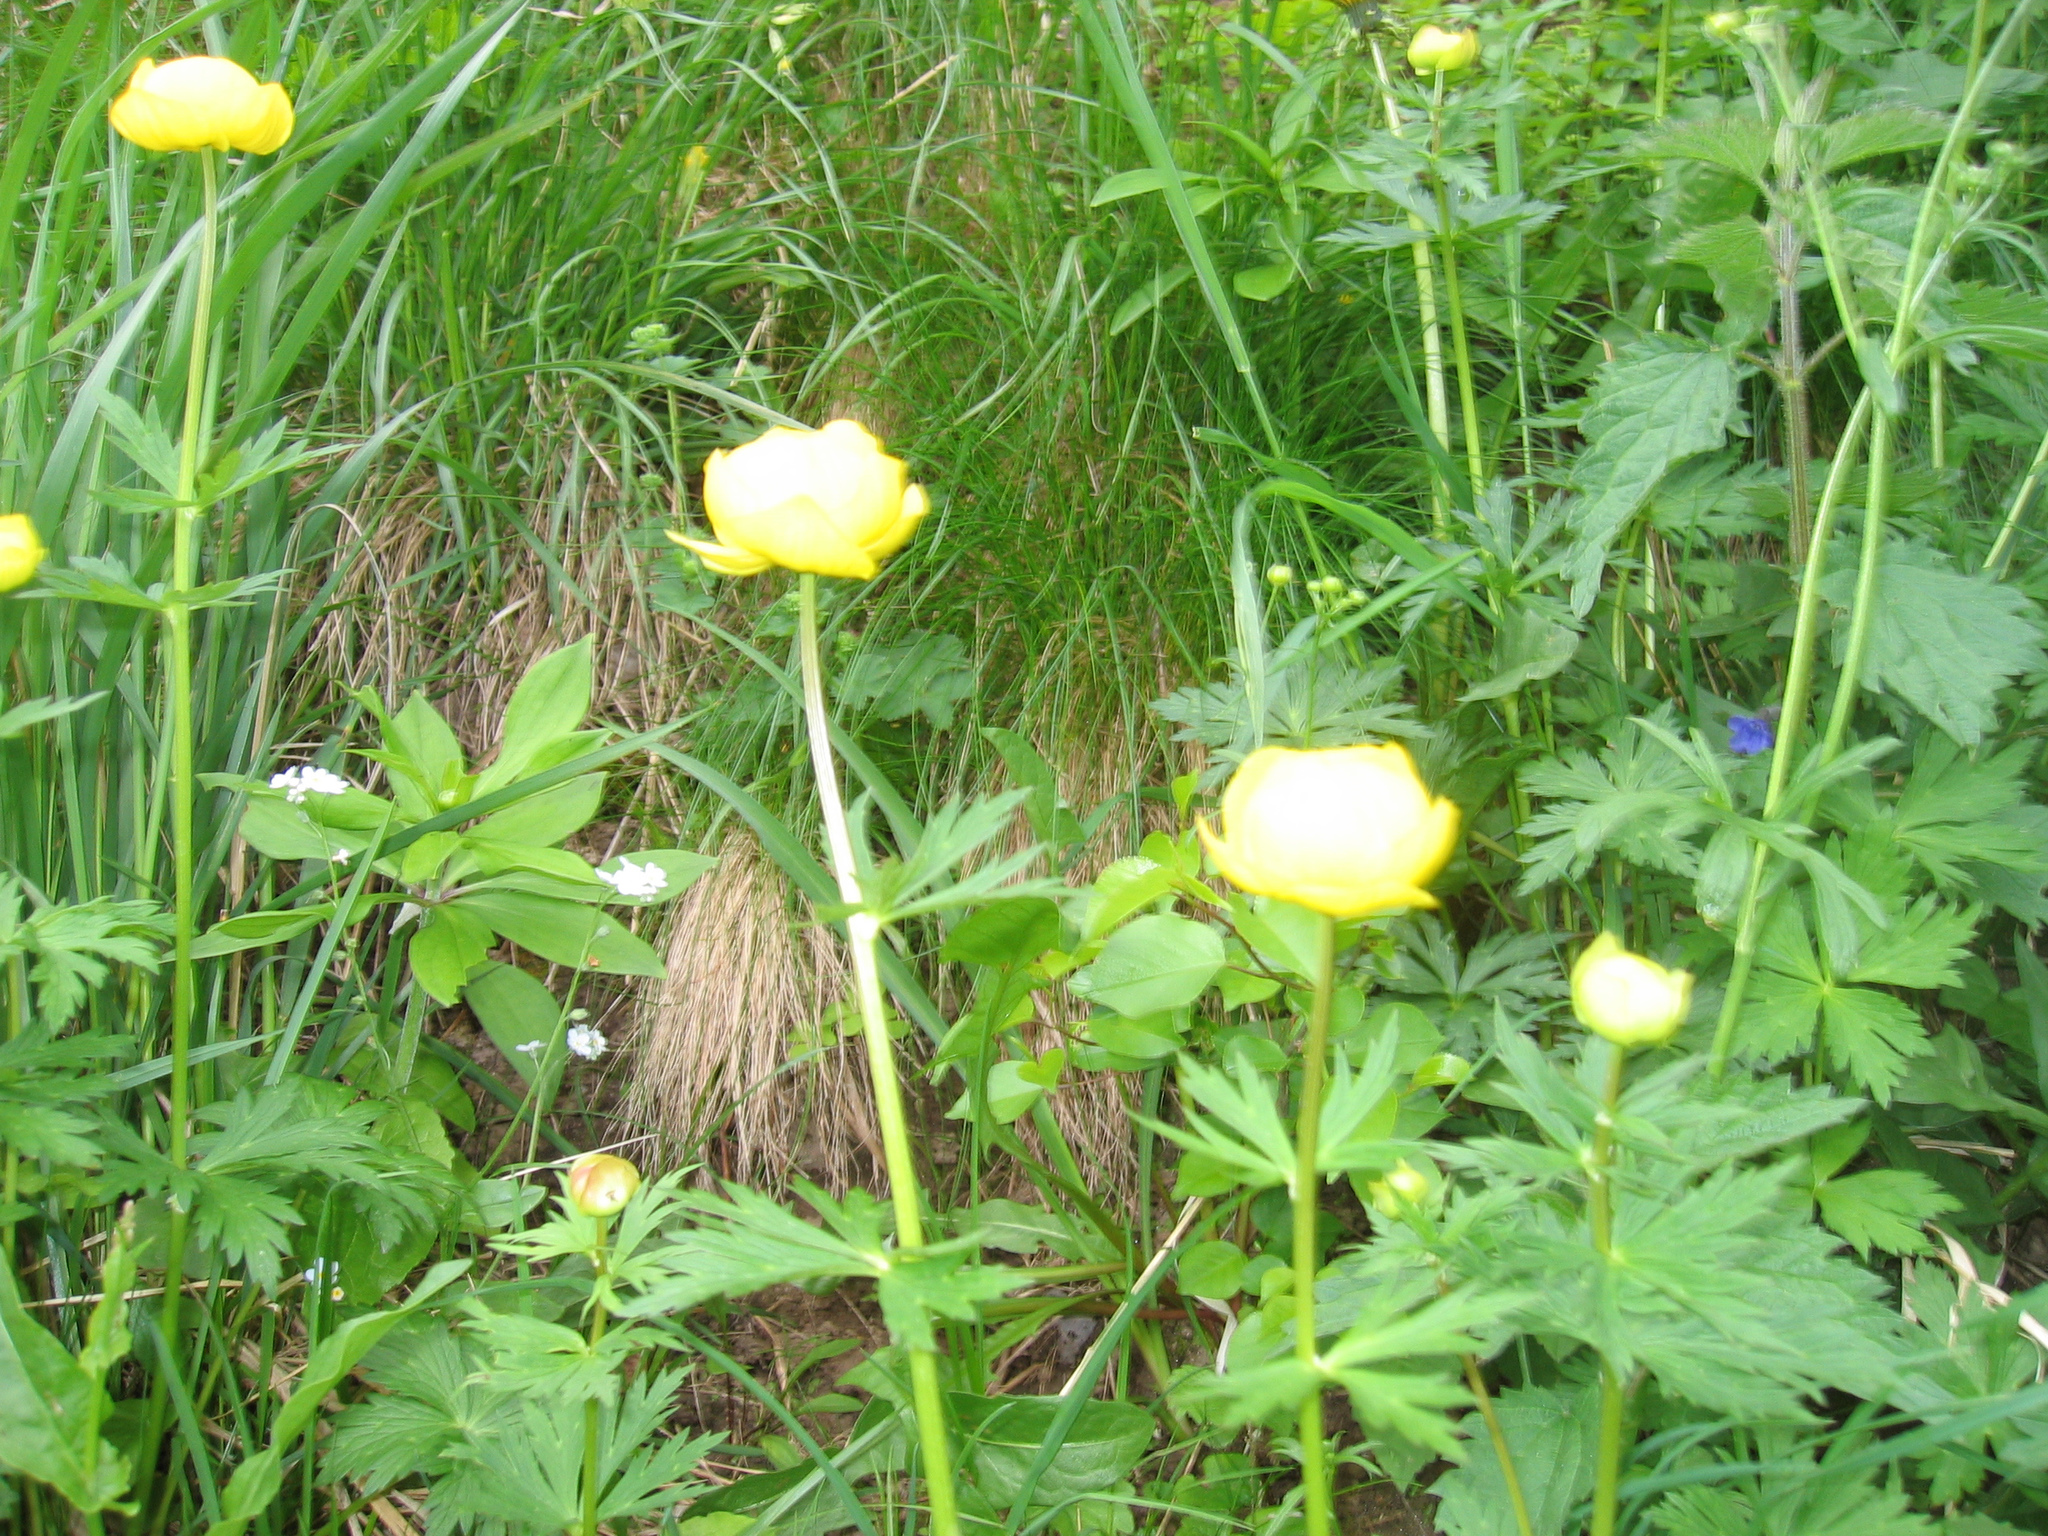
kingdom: Plantae
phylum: Tracheophyta
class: Magnoliopsida
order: Ranunculales
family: Ranunculaceae
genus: Trollius
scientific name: Trollius europaeus
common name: European globeflower
